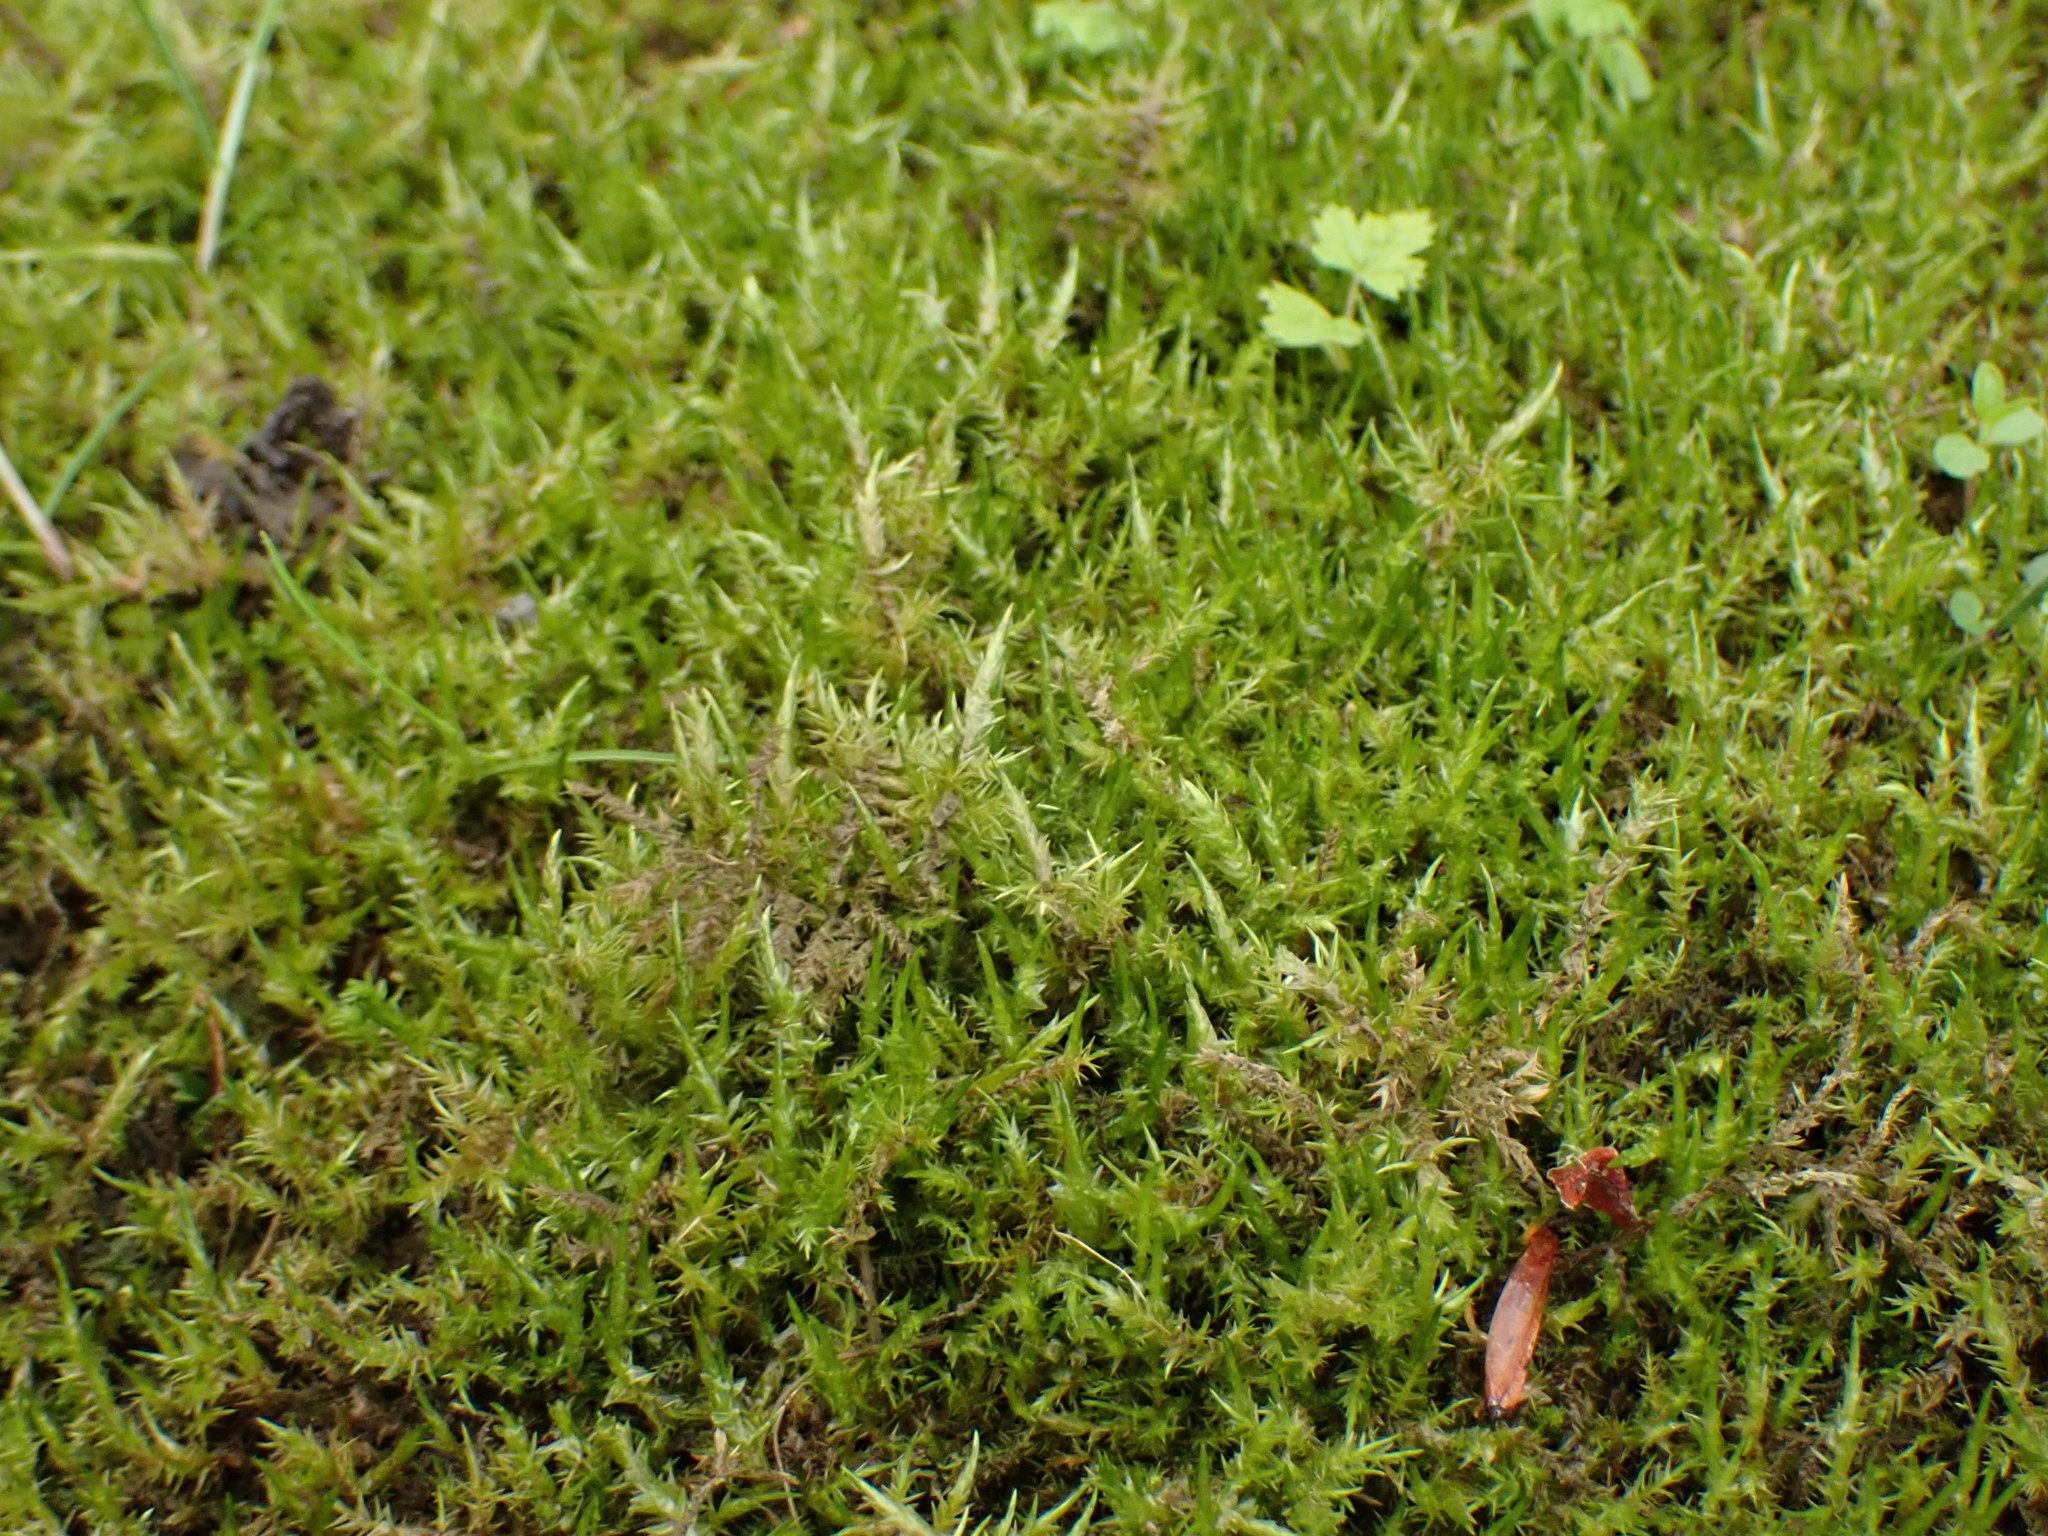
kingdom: Plantae
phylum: Bryophyta
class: Bryopsida
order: Hypnales
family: Pylaisiaceae
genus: Calliergonella
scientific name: Calliergonella cuspidata
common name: Common large wetland moss
